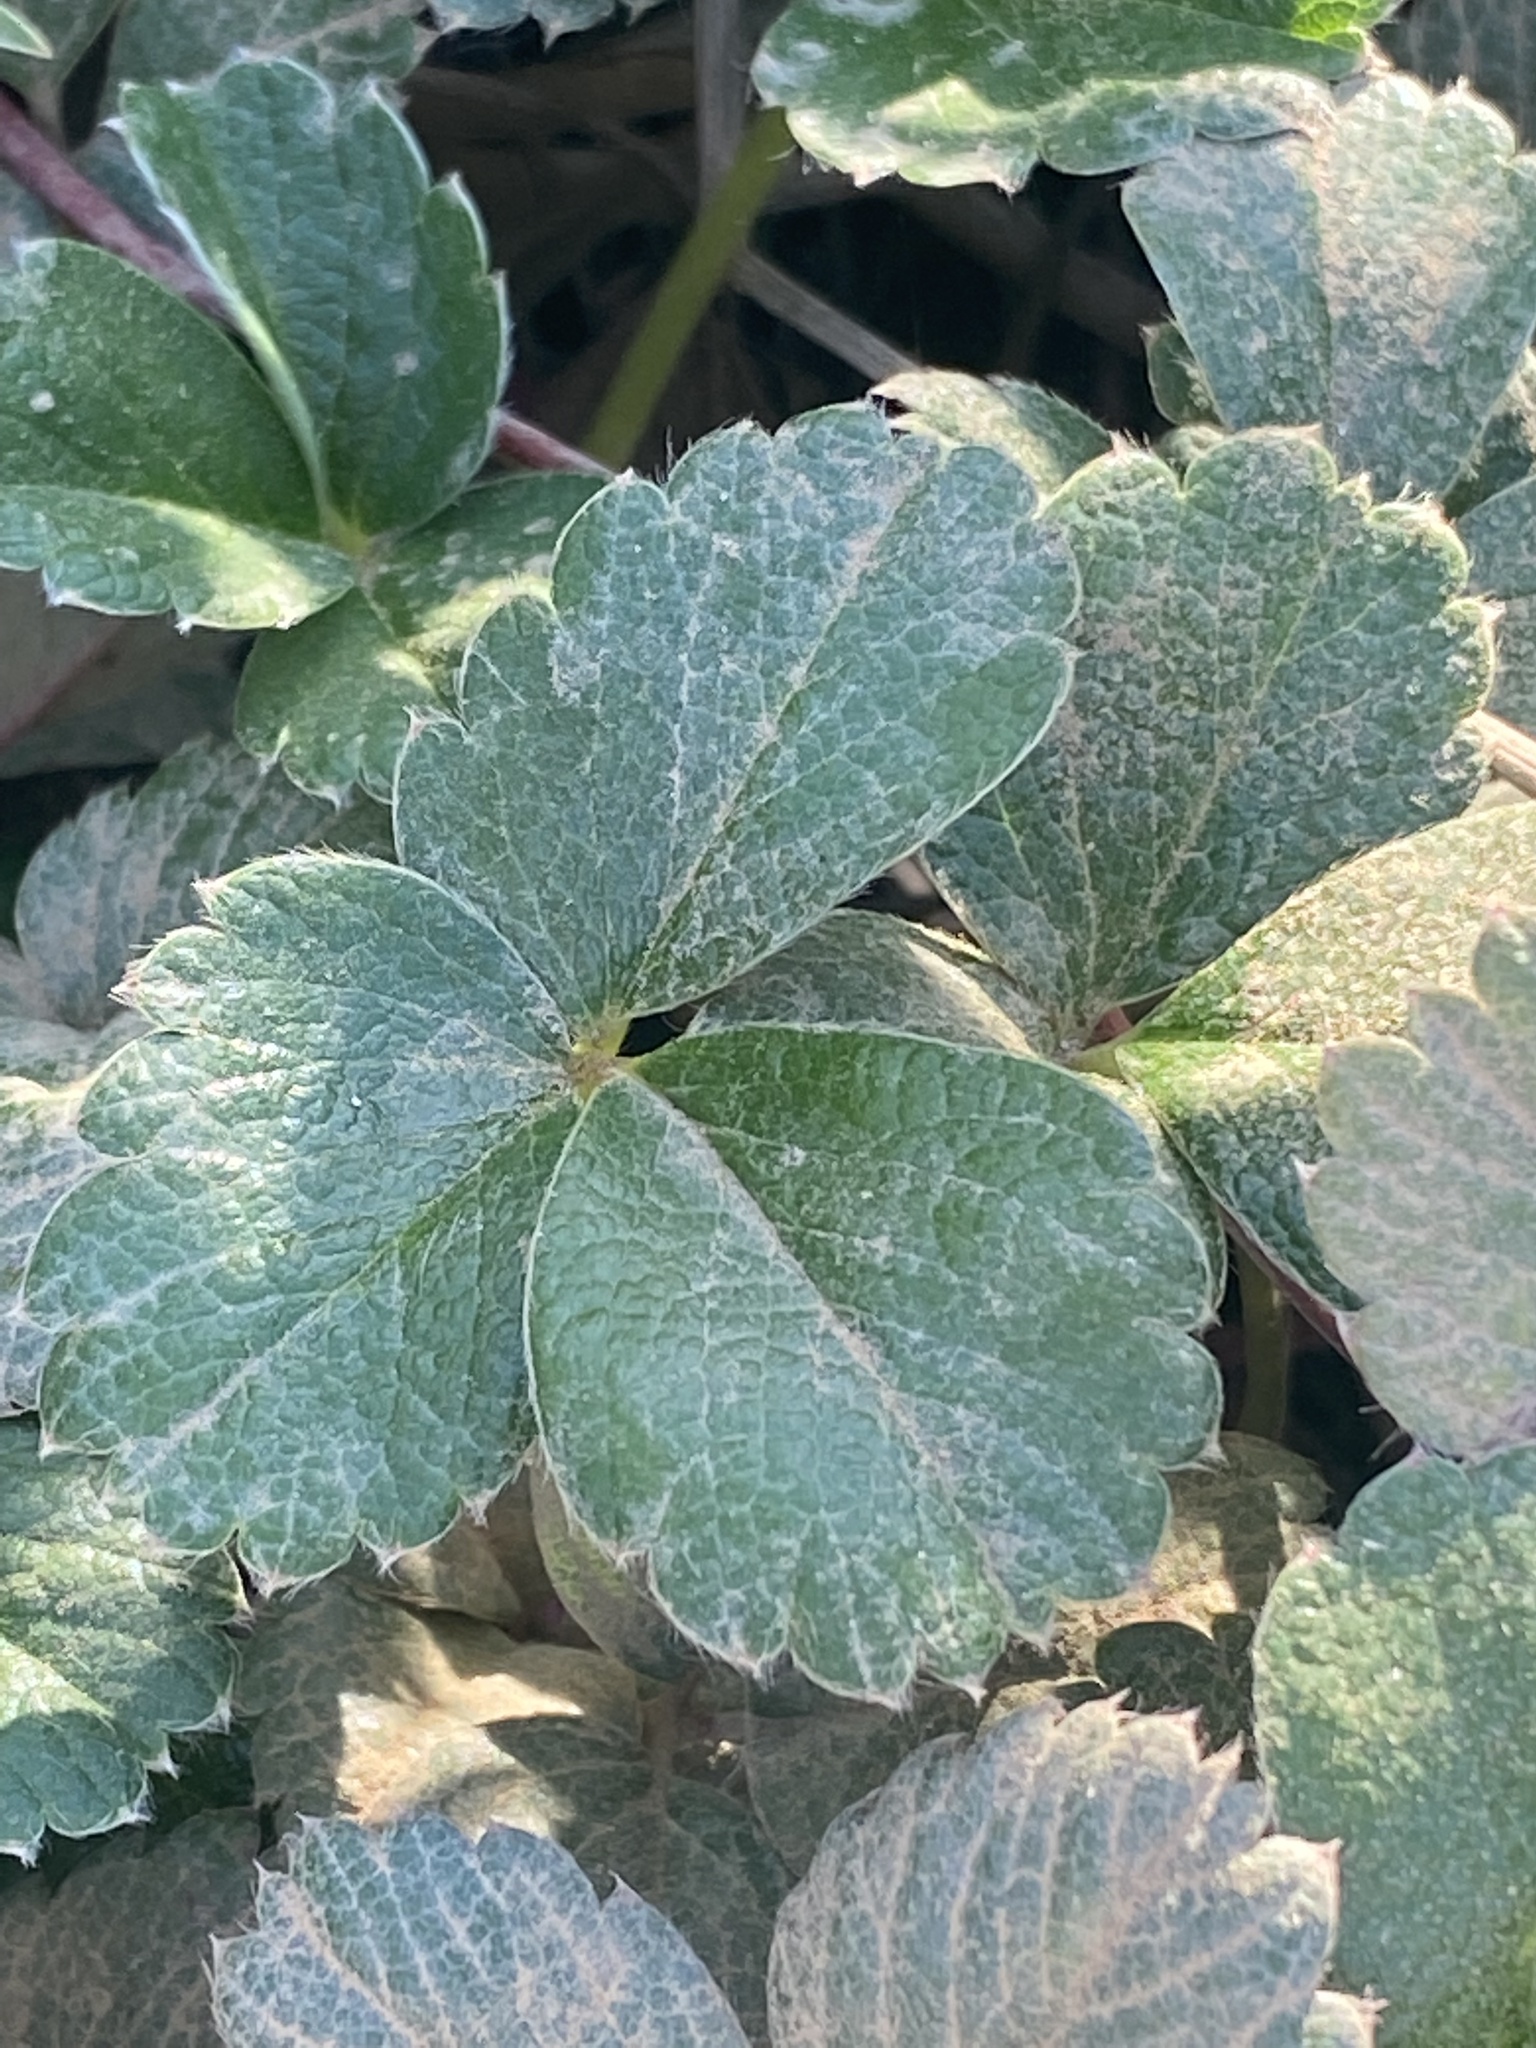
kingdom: Plantae
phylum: Tracheophyta
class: Magnoliopsida
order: Rosales
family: Rosaceae
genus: Fragaria
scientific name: Fragaria chiloensis
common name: Beach strawberry
